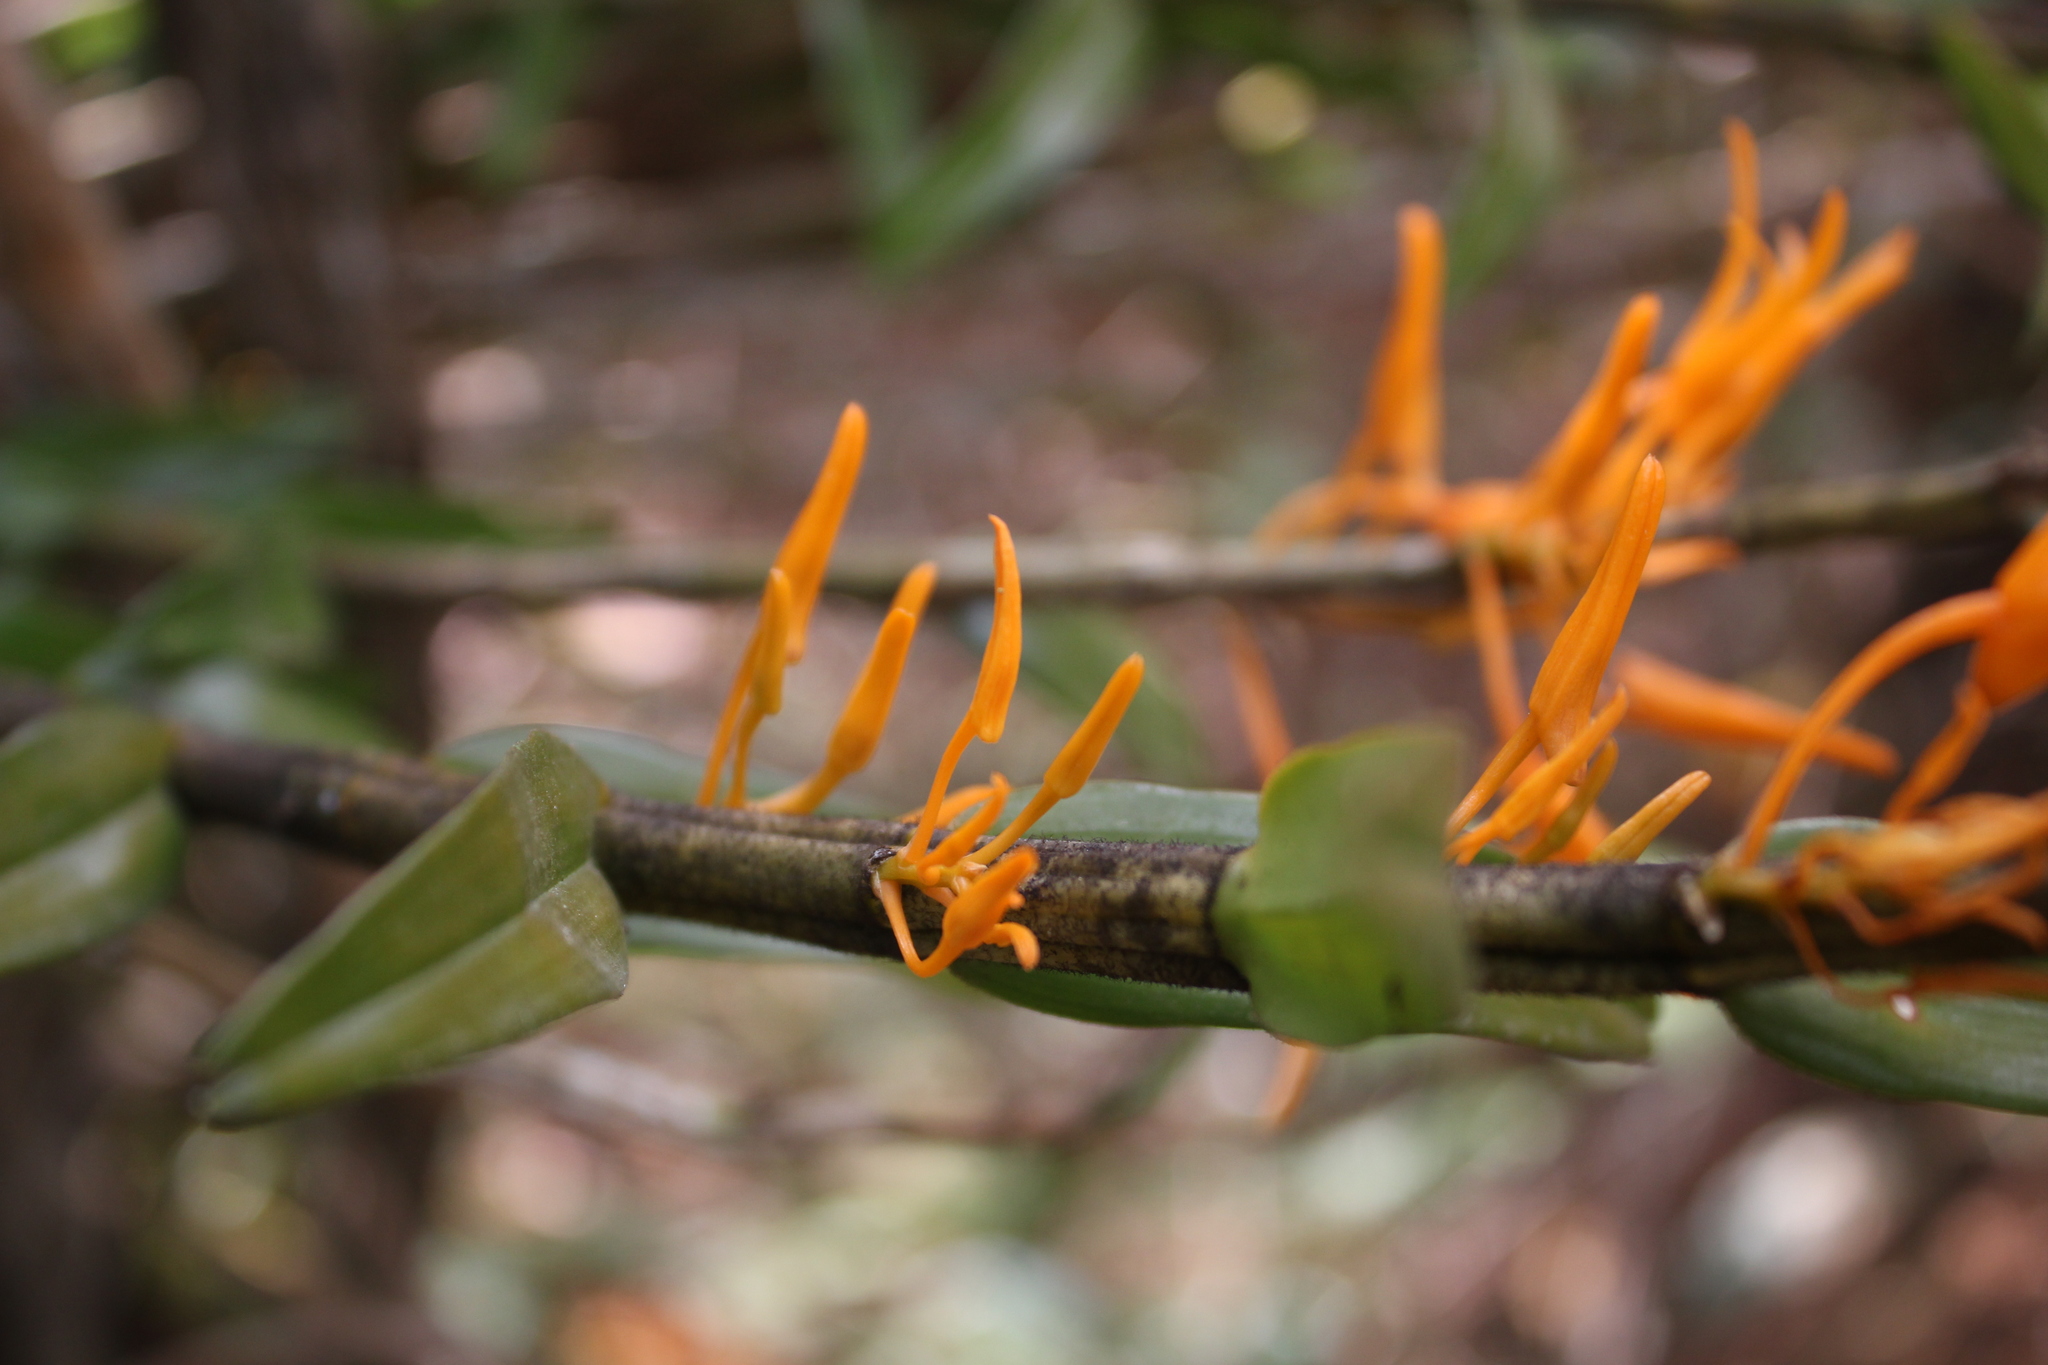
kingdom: Plantae
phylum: Tracheophyta
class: Liliopsida
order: Asparagales
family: Orchidaceae
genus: Dendrobium
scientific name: Dendrobium jerdonianum
